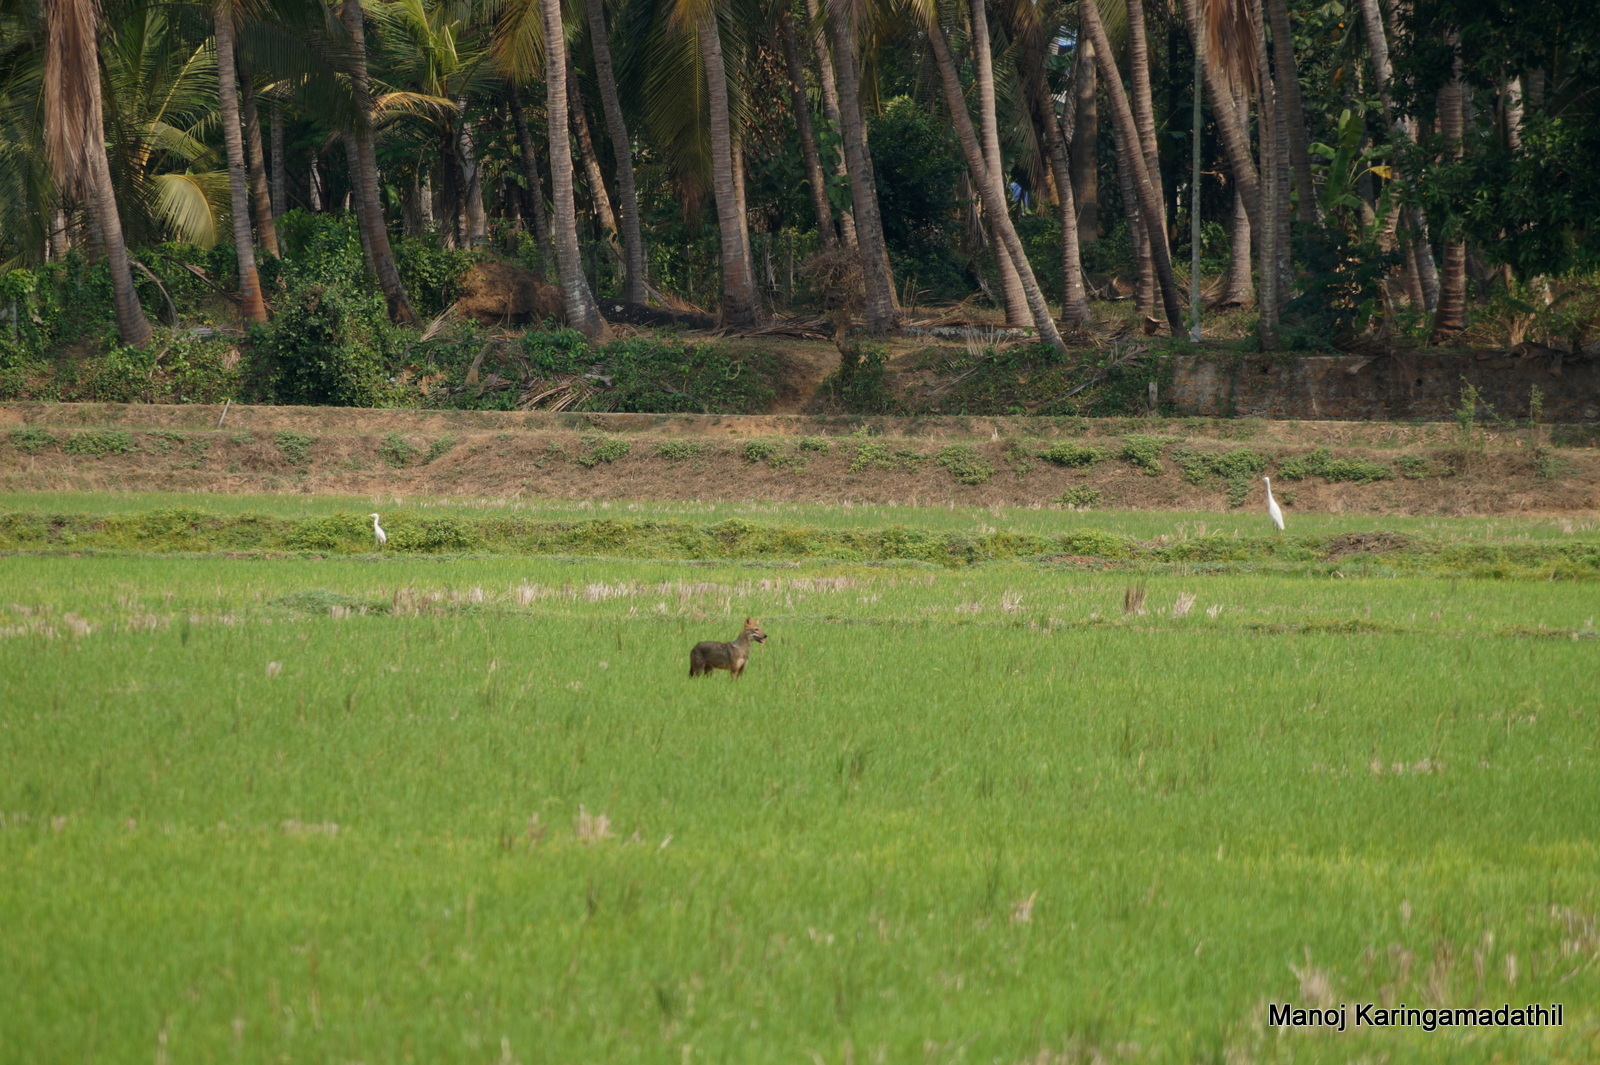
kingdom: Animalia
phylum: Chordata
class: Mammalia
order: Carnivora
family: Canidae
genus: Canis
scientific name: Canis aureus
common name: Golden jackal
